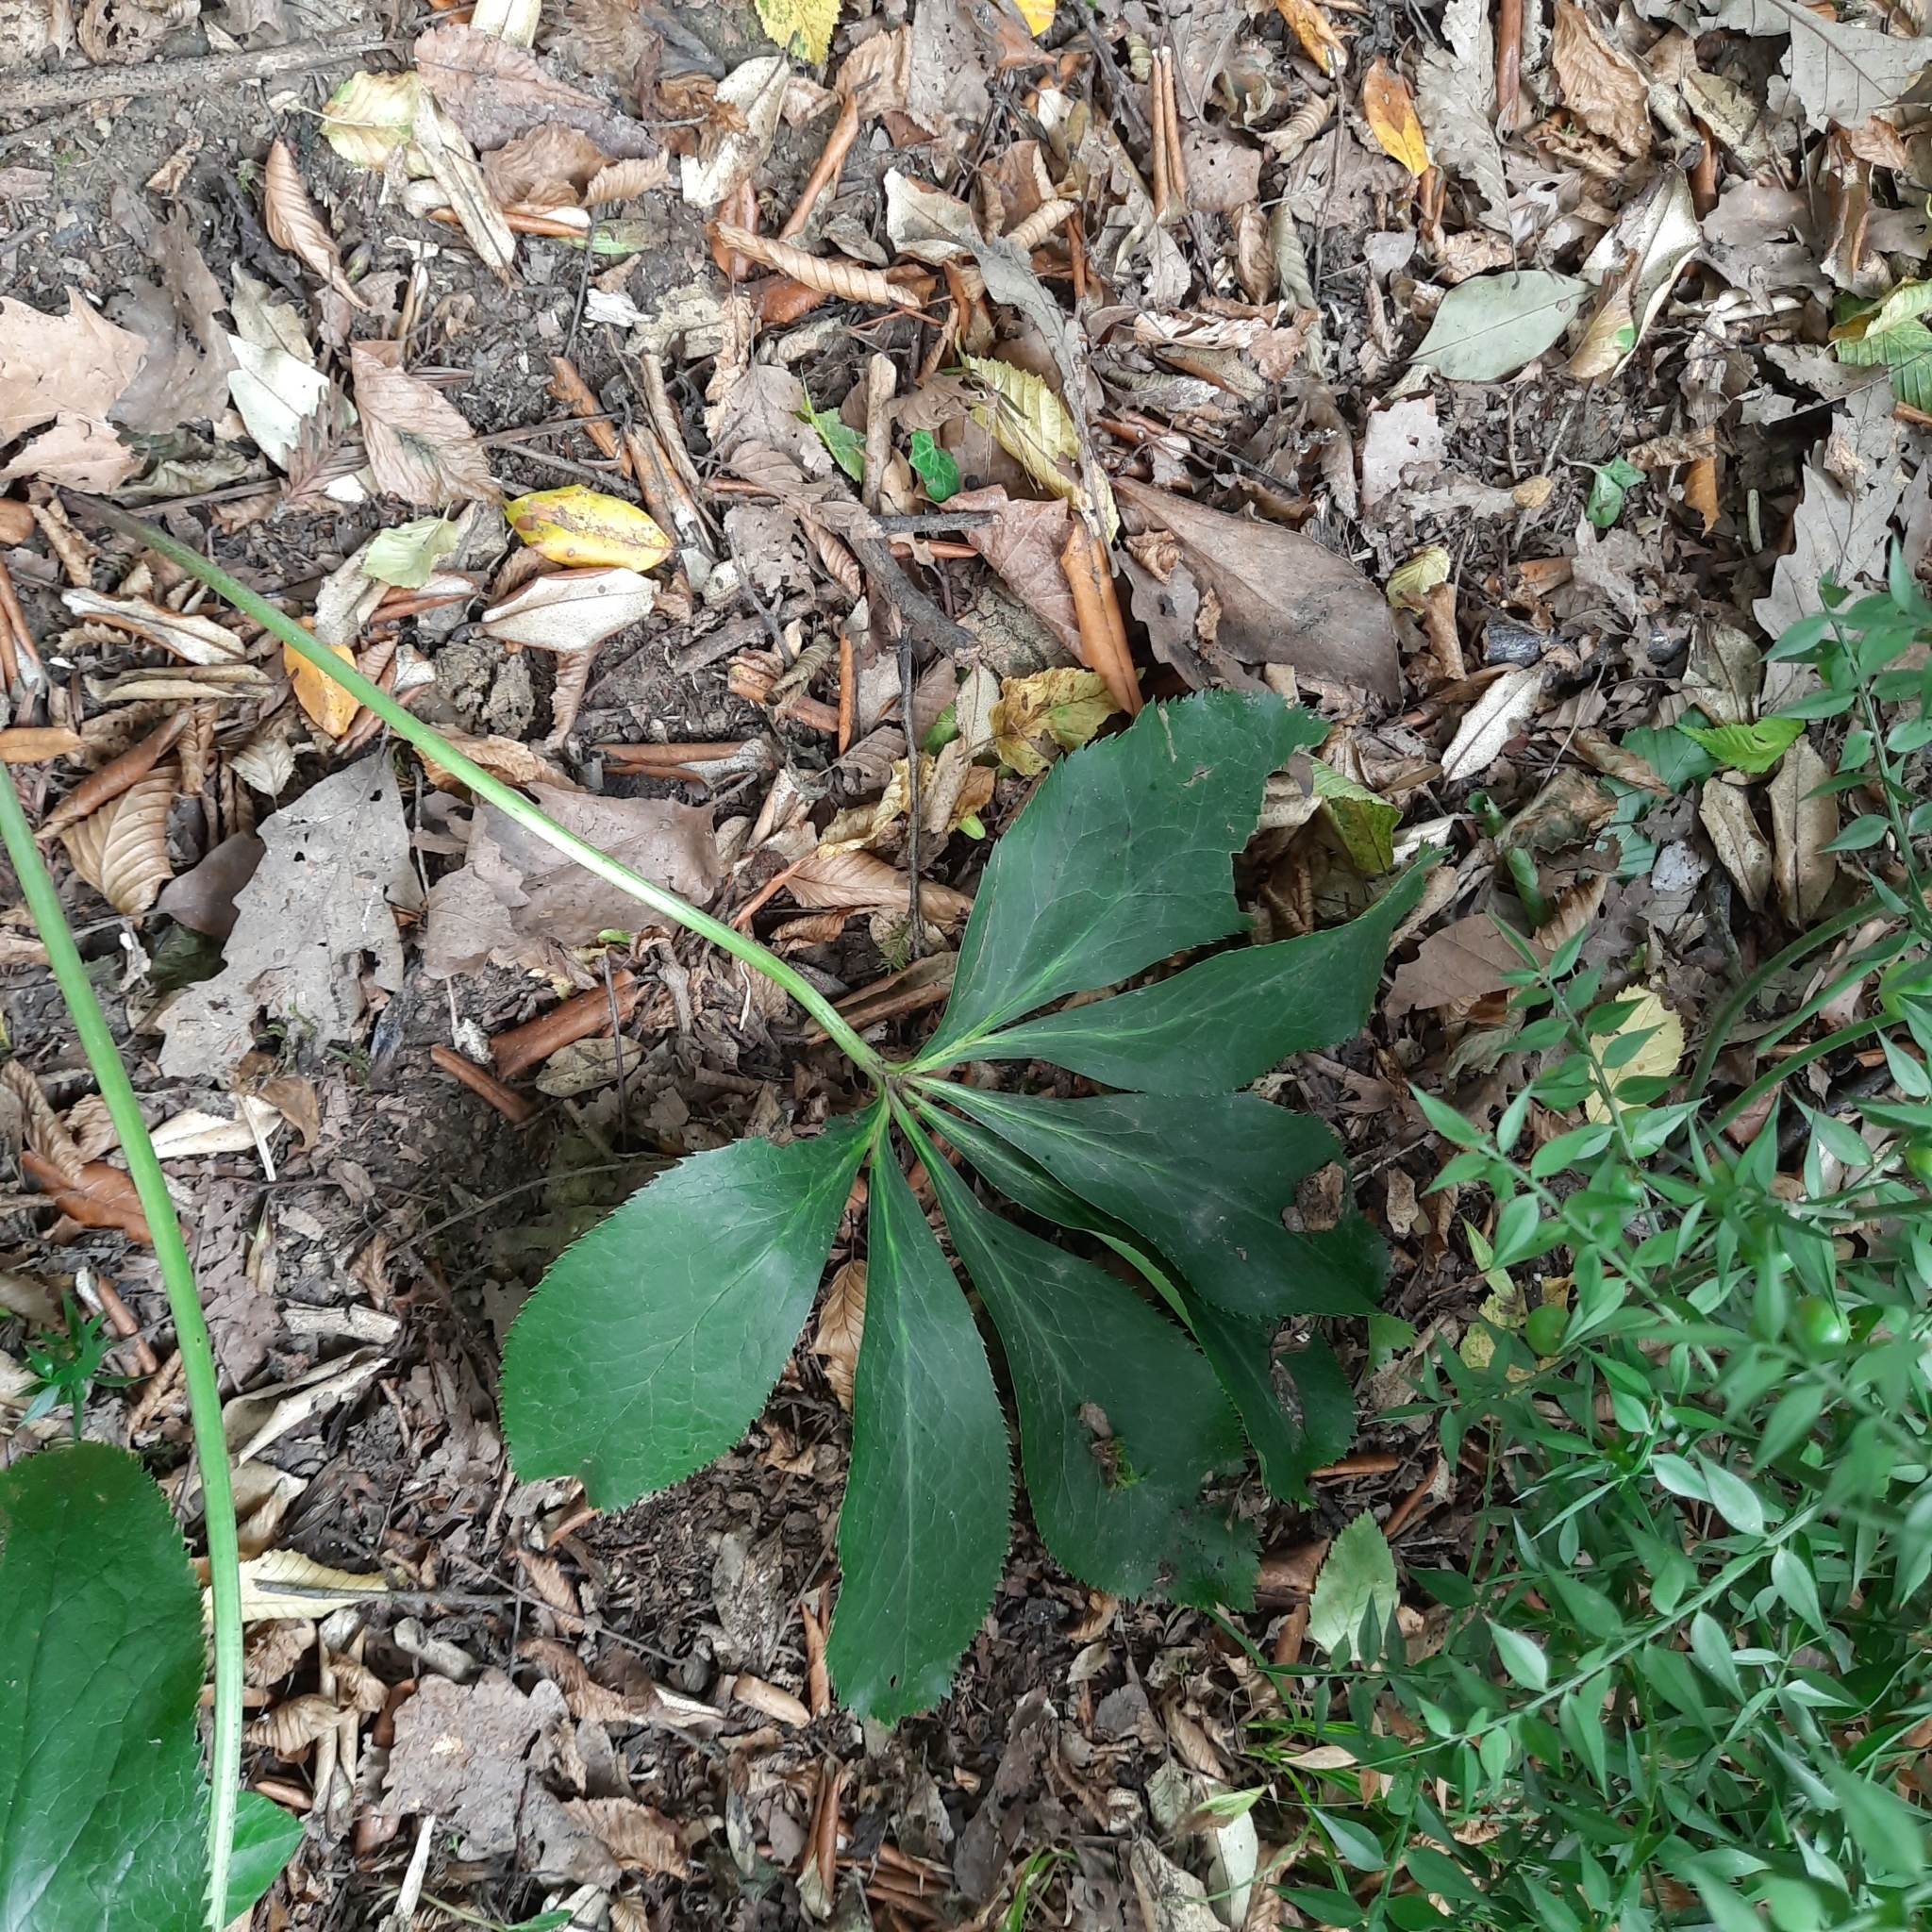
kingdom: Plantae
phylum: Tracheophyta
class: Magnoliopsida
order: Ranunculales
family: Ranunculaceae
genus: Helleborus
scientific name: Helleborus orientalis
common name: Lenten-rose
